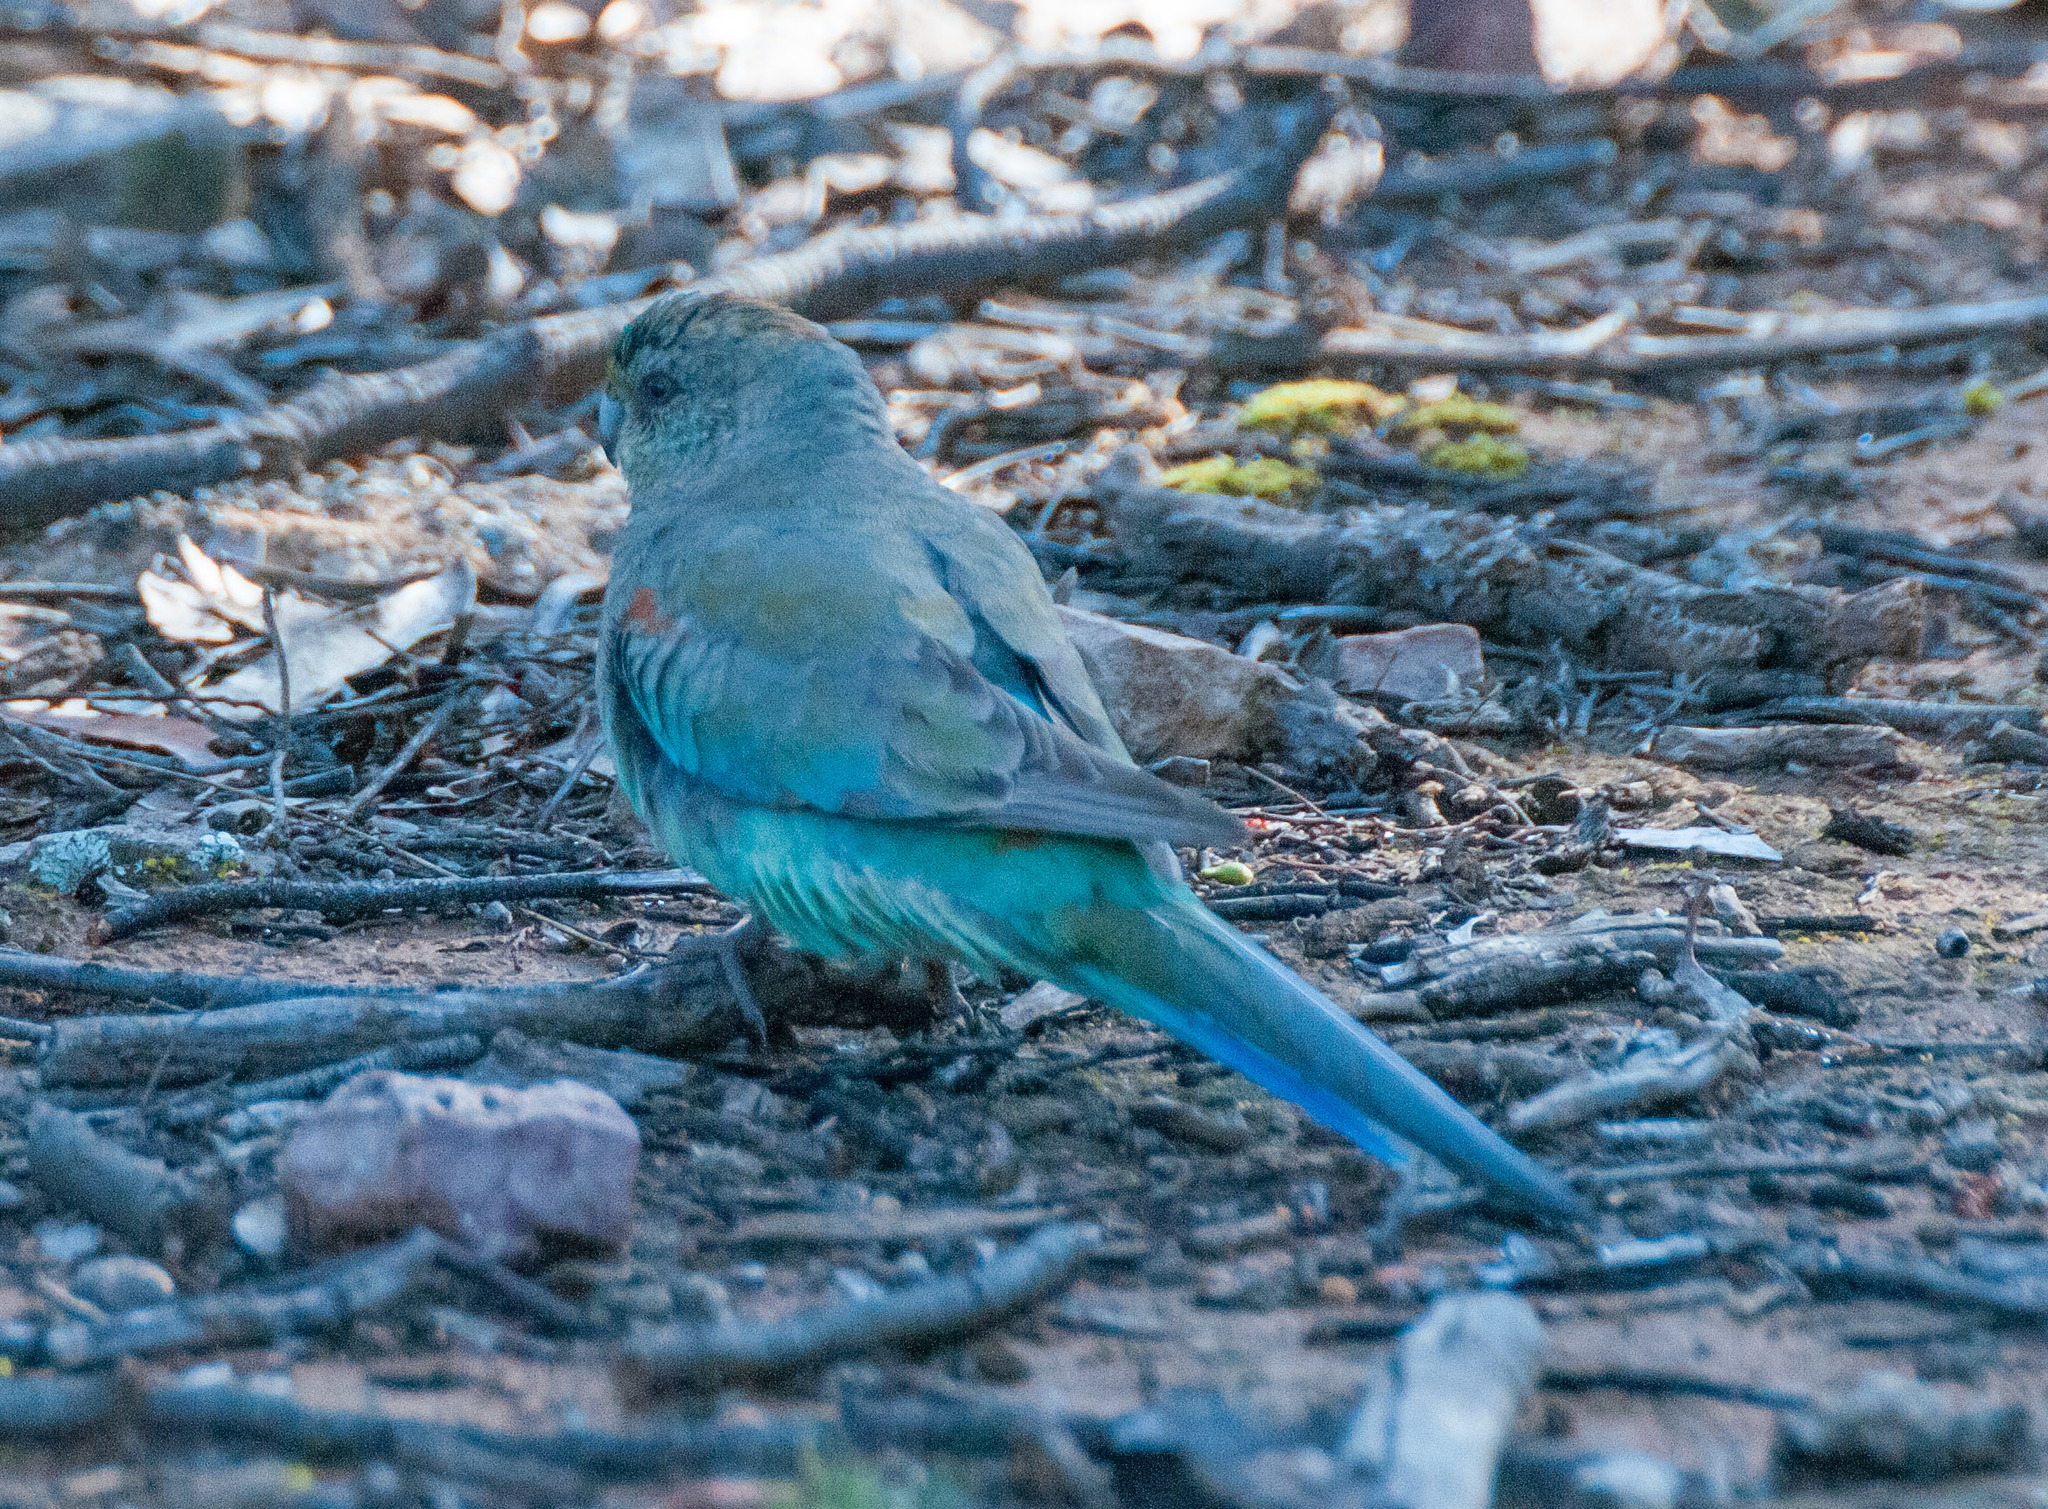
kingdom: Animalia
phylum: Chordata
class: Aves
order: Psittaciformes
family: Psittaculidae
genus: Psephotellus
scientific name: Psephotellus varius
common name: Mulga parrot
